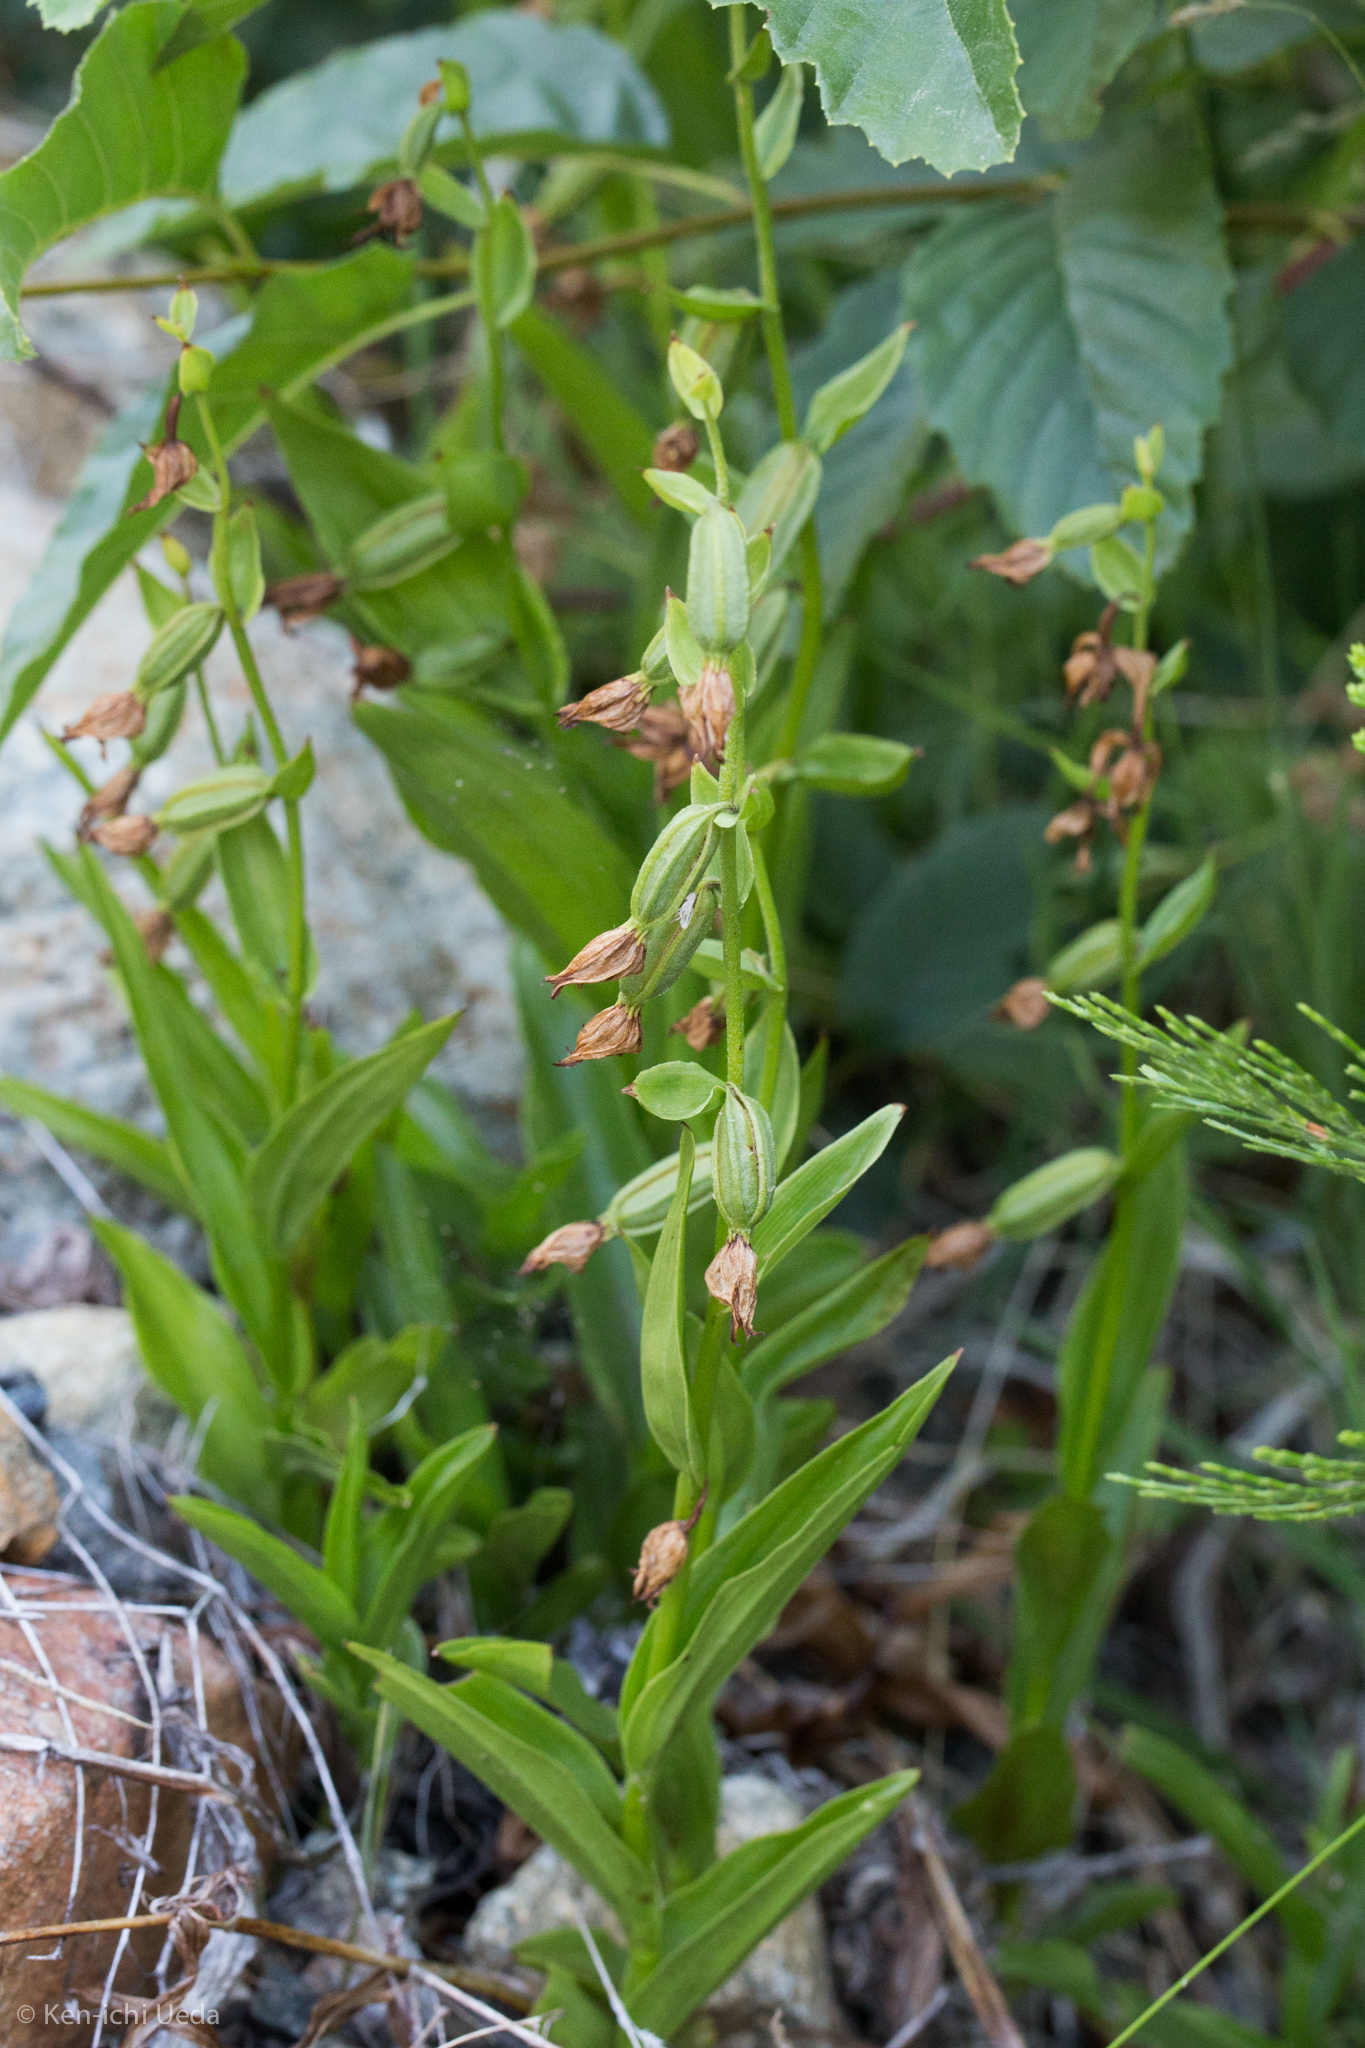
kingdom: Plantae
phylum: Tracheophyta
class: Liliopsida
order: Asparagales
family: Orchidaceae
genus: Epipactis
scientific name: Epipactis gigantea
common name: Chatterbox
